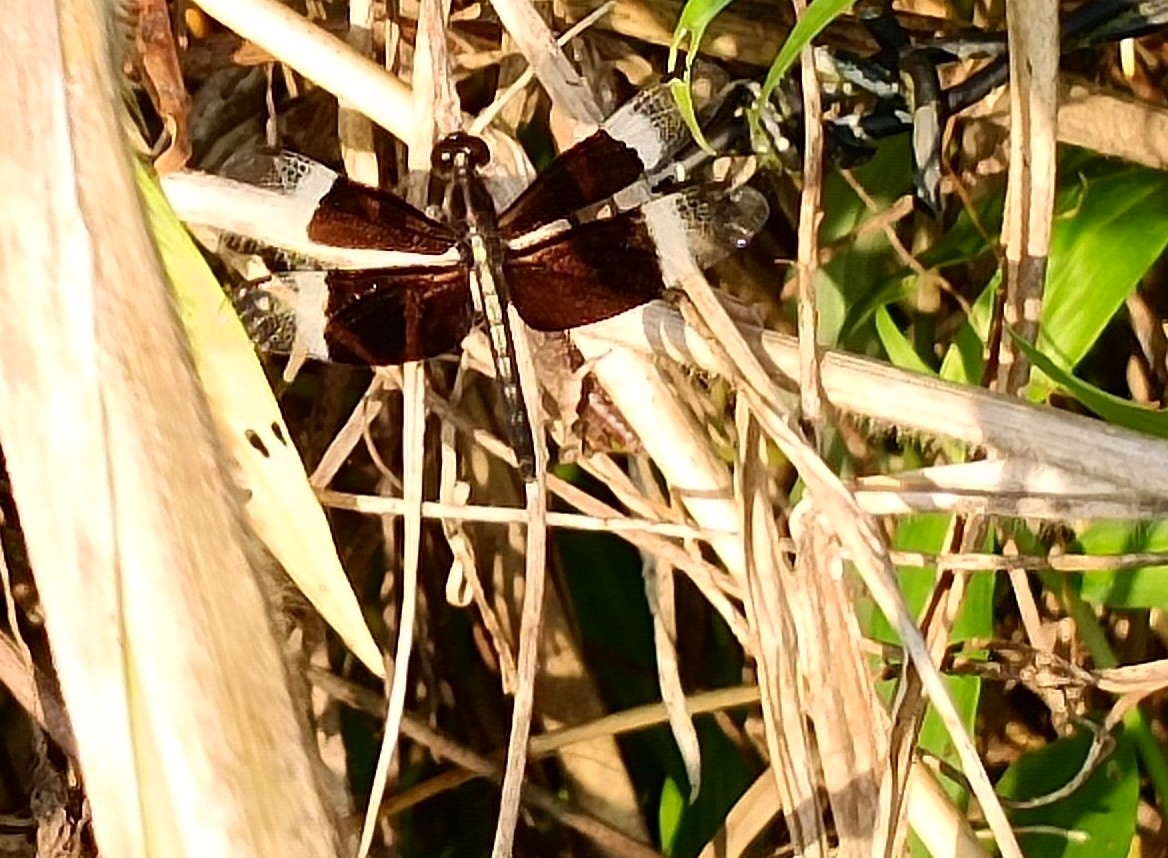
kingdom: Animalia
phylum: Arthropoda
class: Insecta
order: Odonata
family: Libellulidae
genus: Neurothemis
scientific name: Neurothemis tullia
